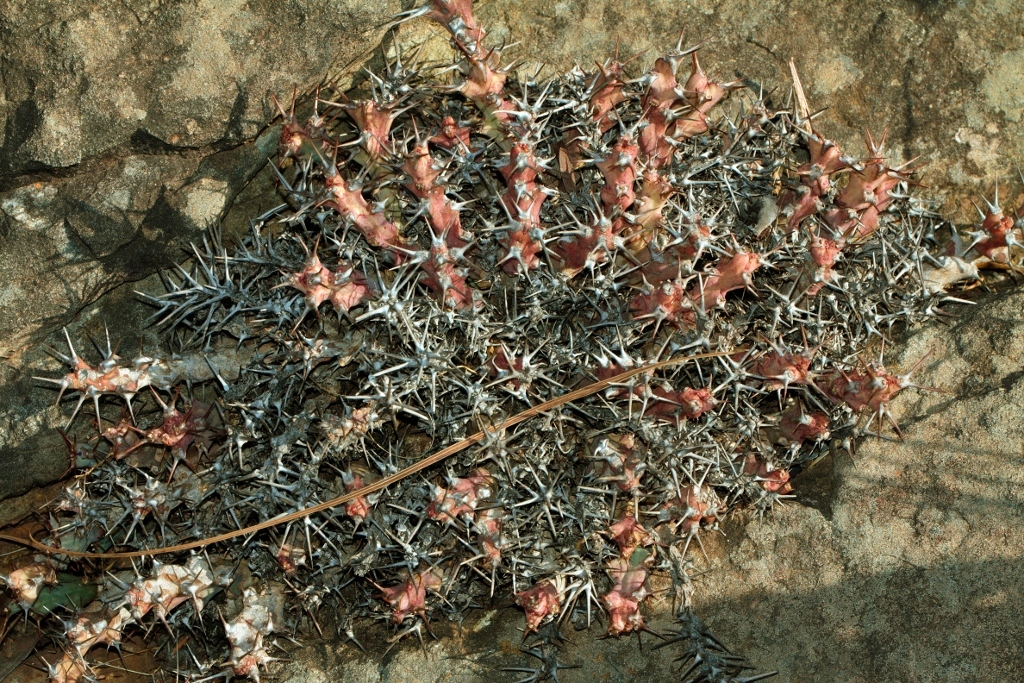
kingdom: Plantae
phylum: Tracheophyta
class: Magnoliopsida
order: Malpighiales
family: Euphorbiaceae
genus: Euphorbia
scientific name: Euphorbia acervata
